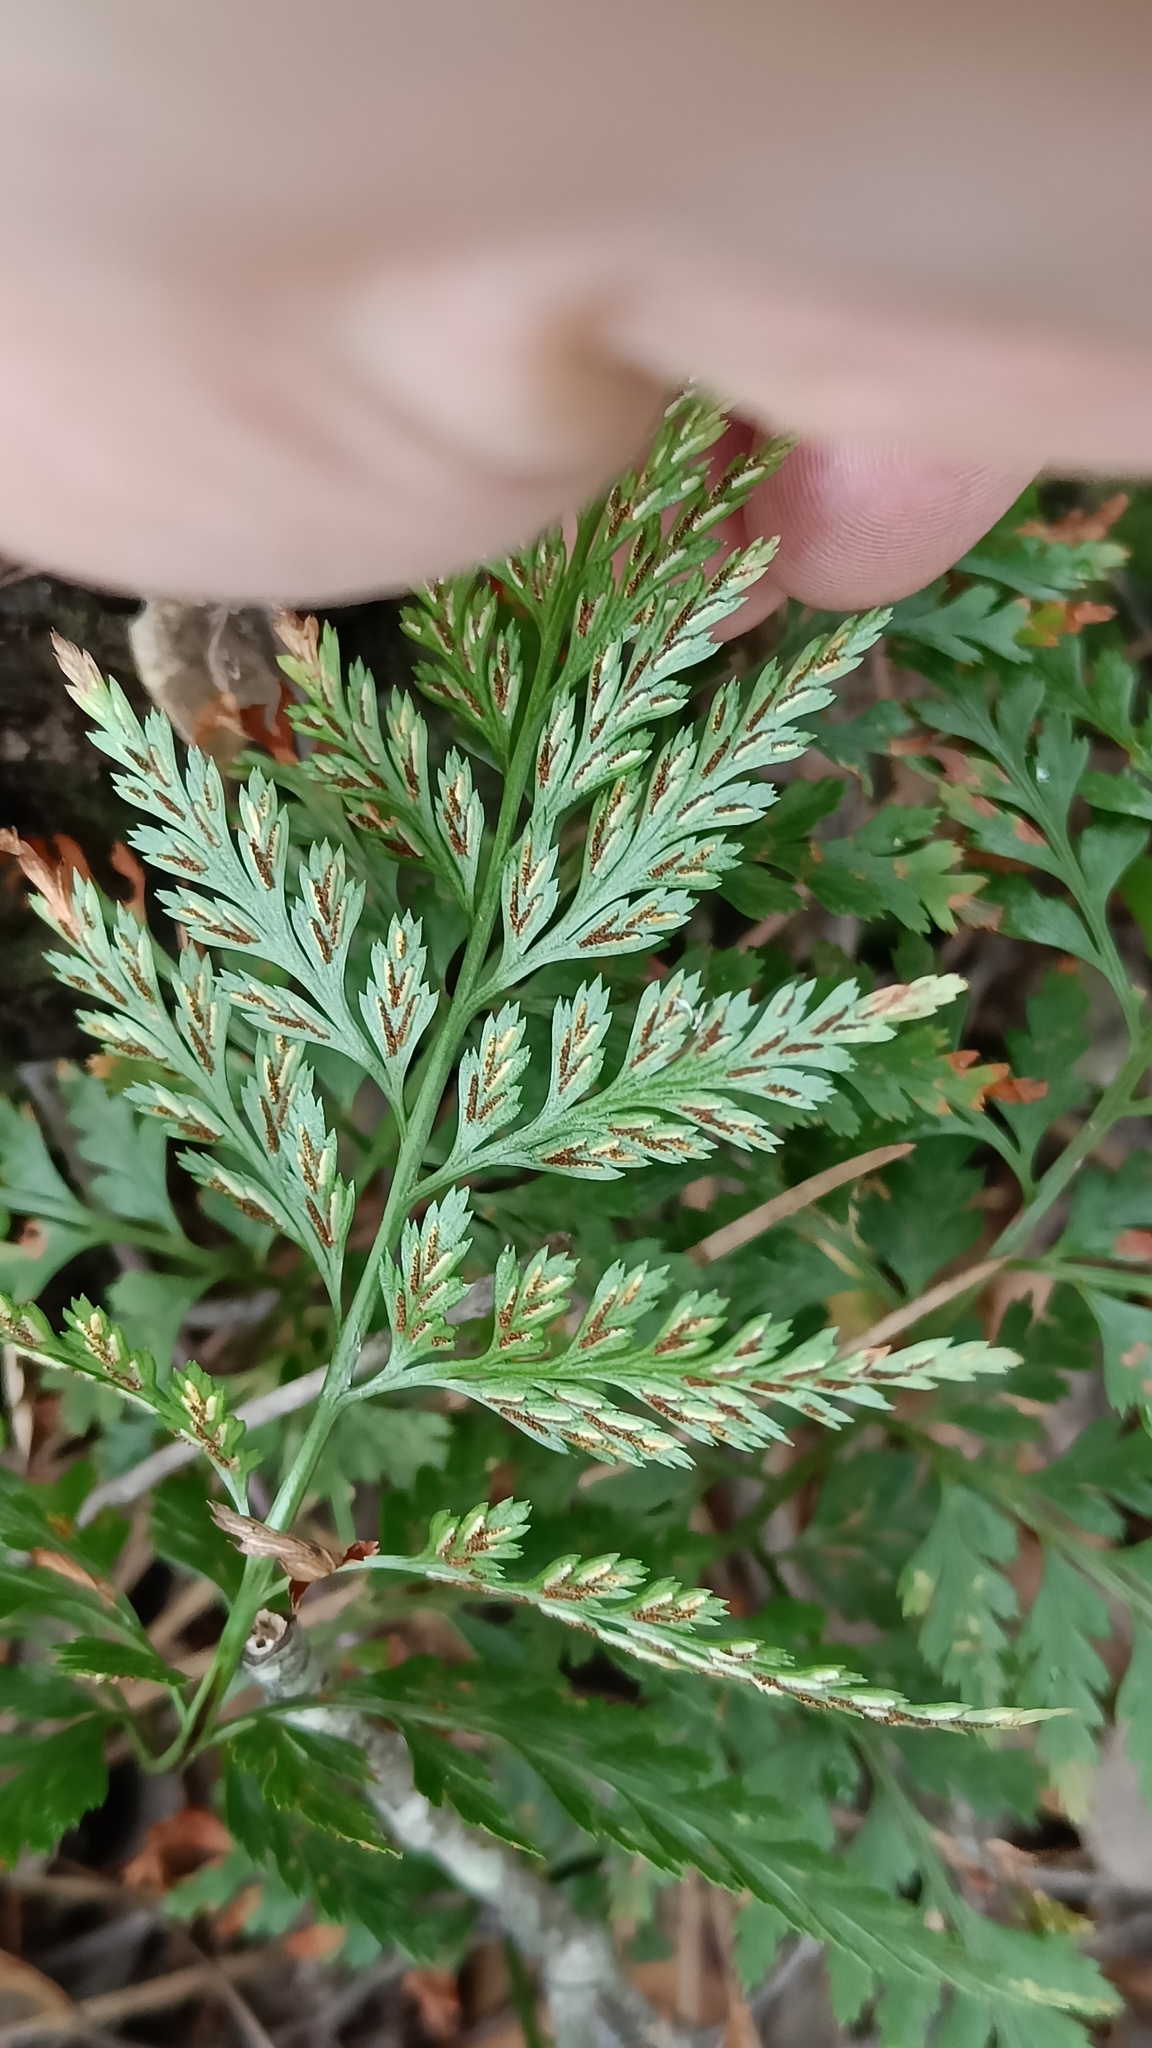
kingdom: Plantae
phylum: Tracheophyta
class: Polypodiopsida
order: Polypodiales
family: Aspleniaceae
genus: Asplenium
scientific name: Asplenium onopteris
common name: Irish spleenwort
